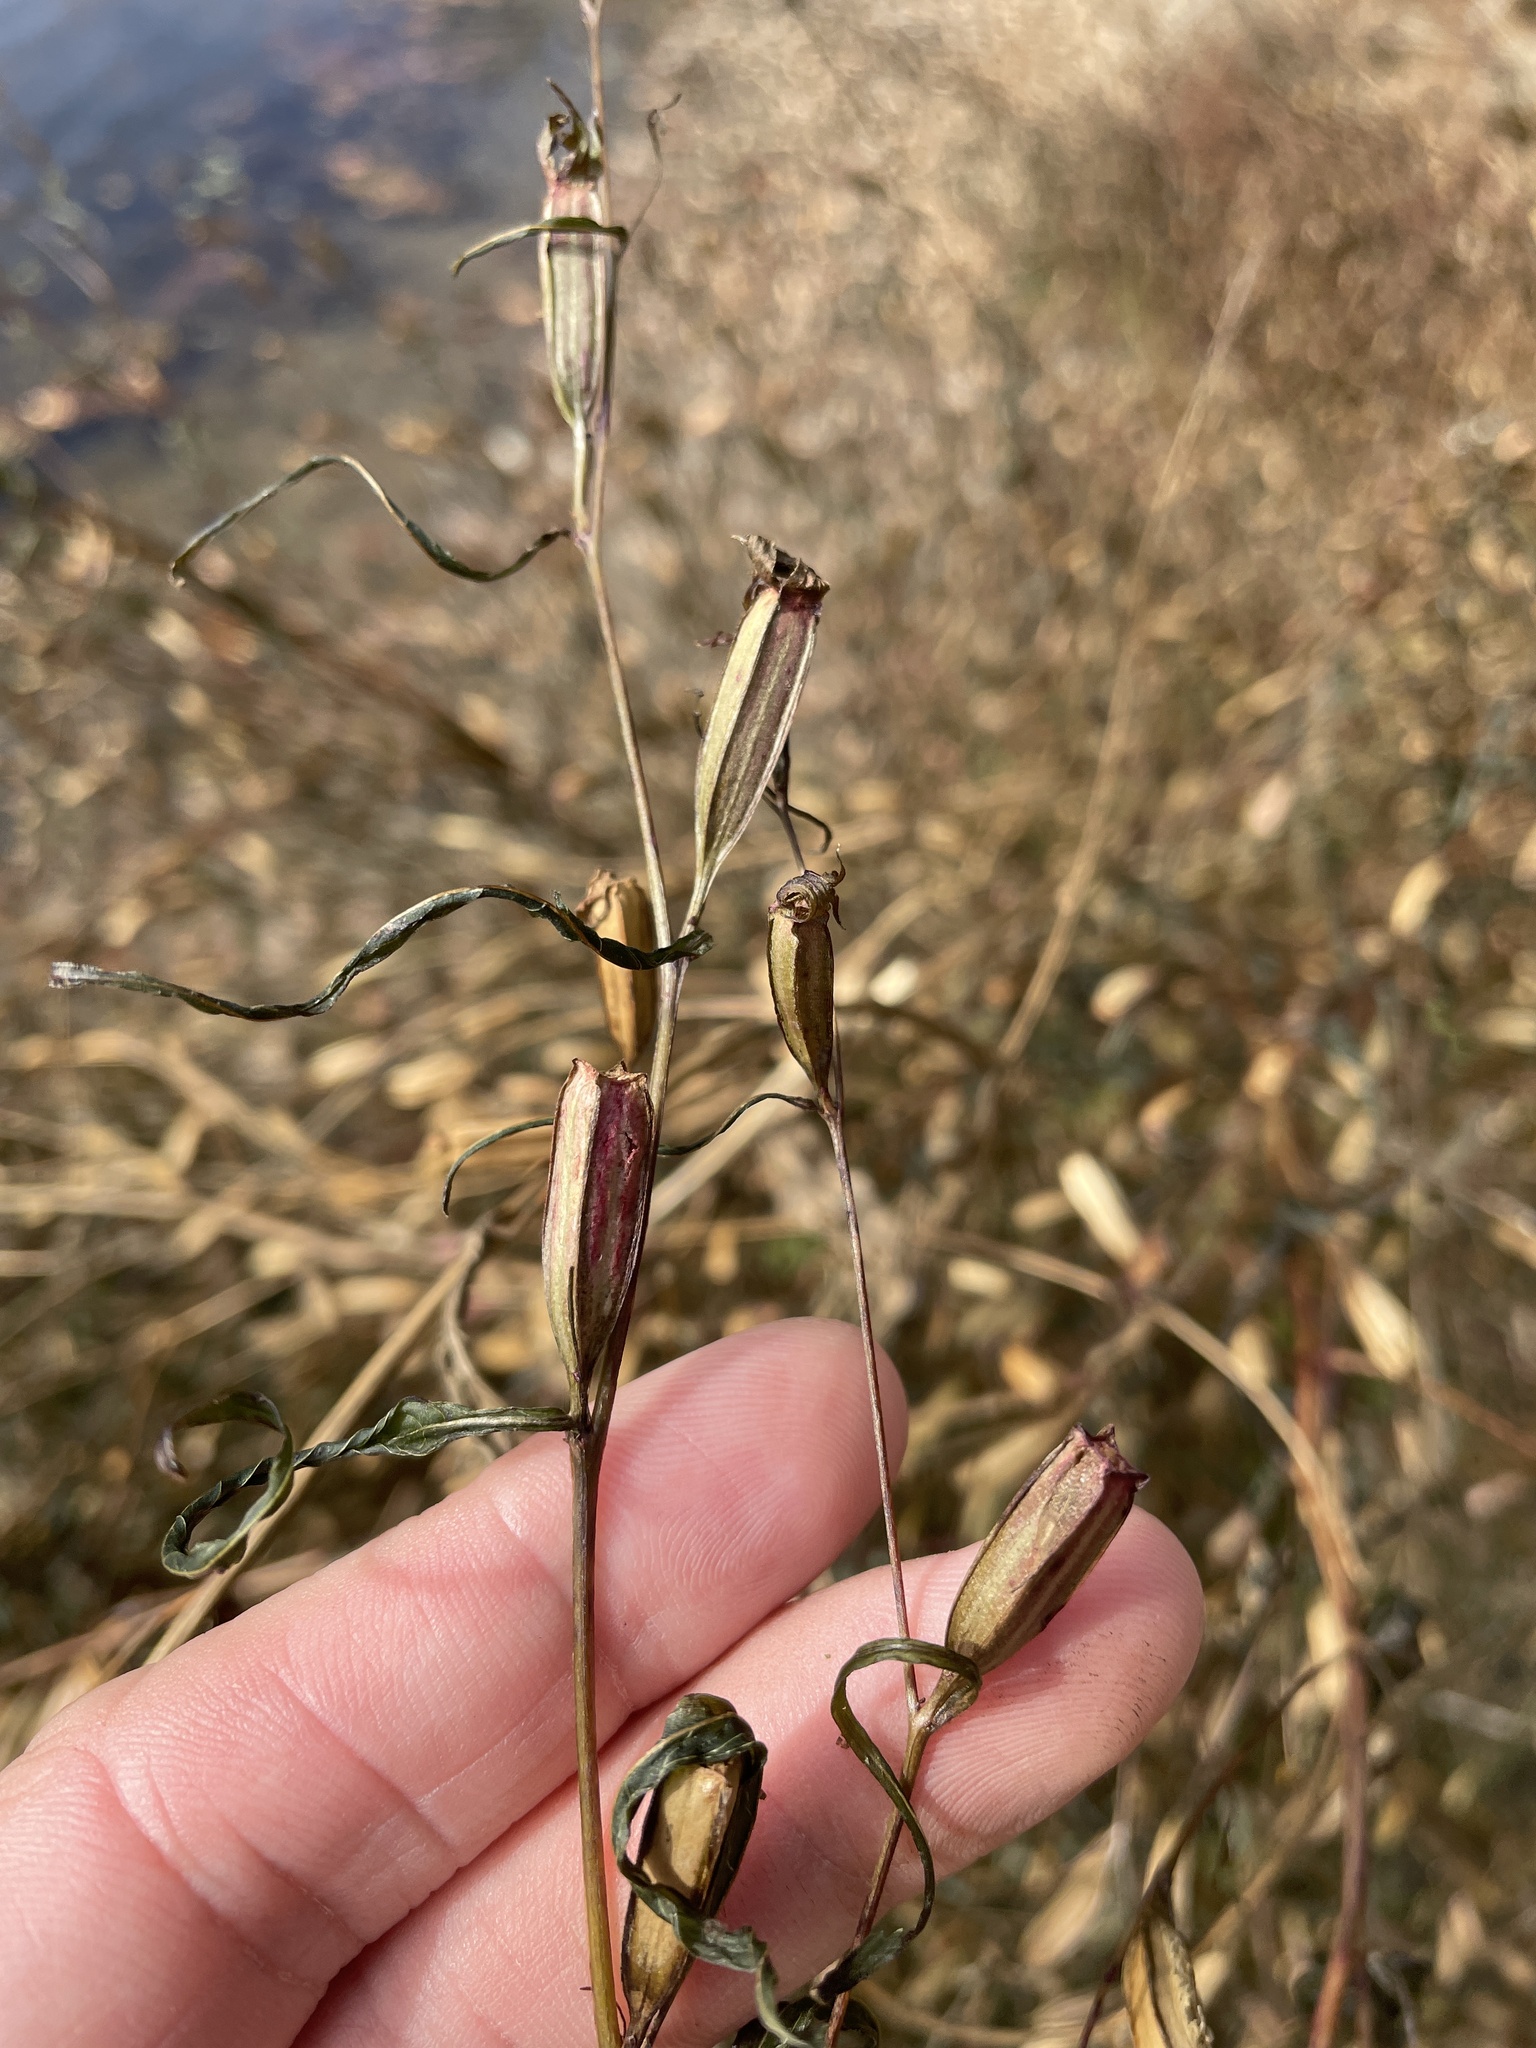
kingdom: Plantae
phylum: Tracheophyta
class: Magnoliopsida
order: Myrtales
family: Onagraceae
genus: Ludwigia
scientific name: Ludwigia decurrens
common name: Winged water-primrose
